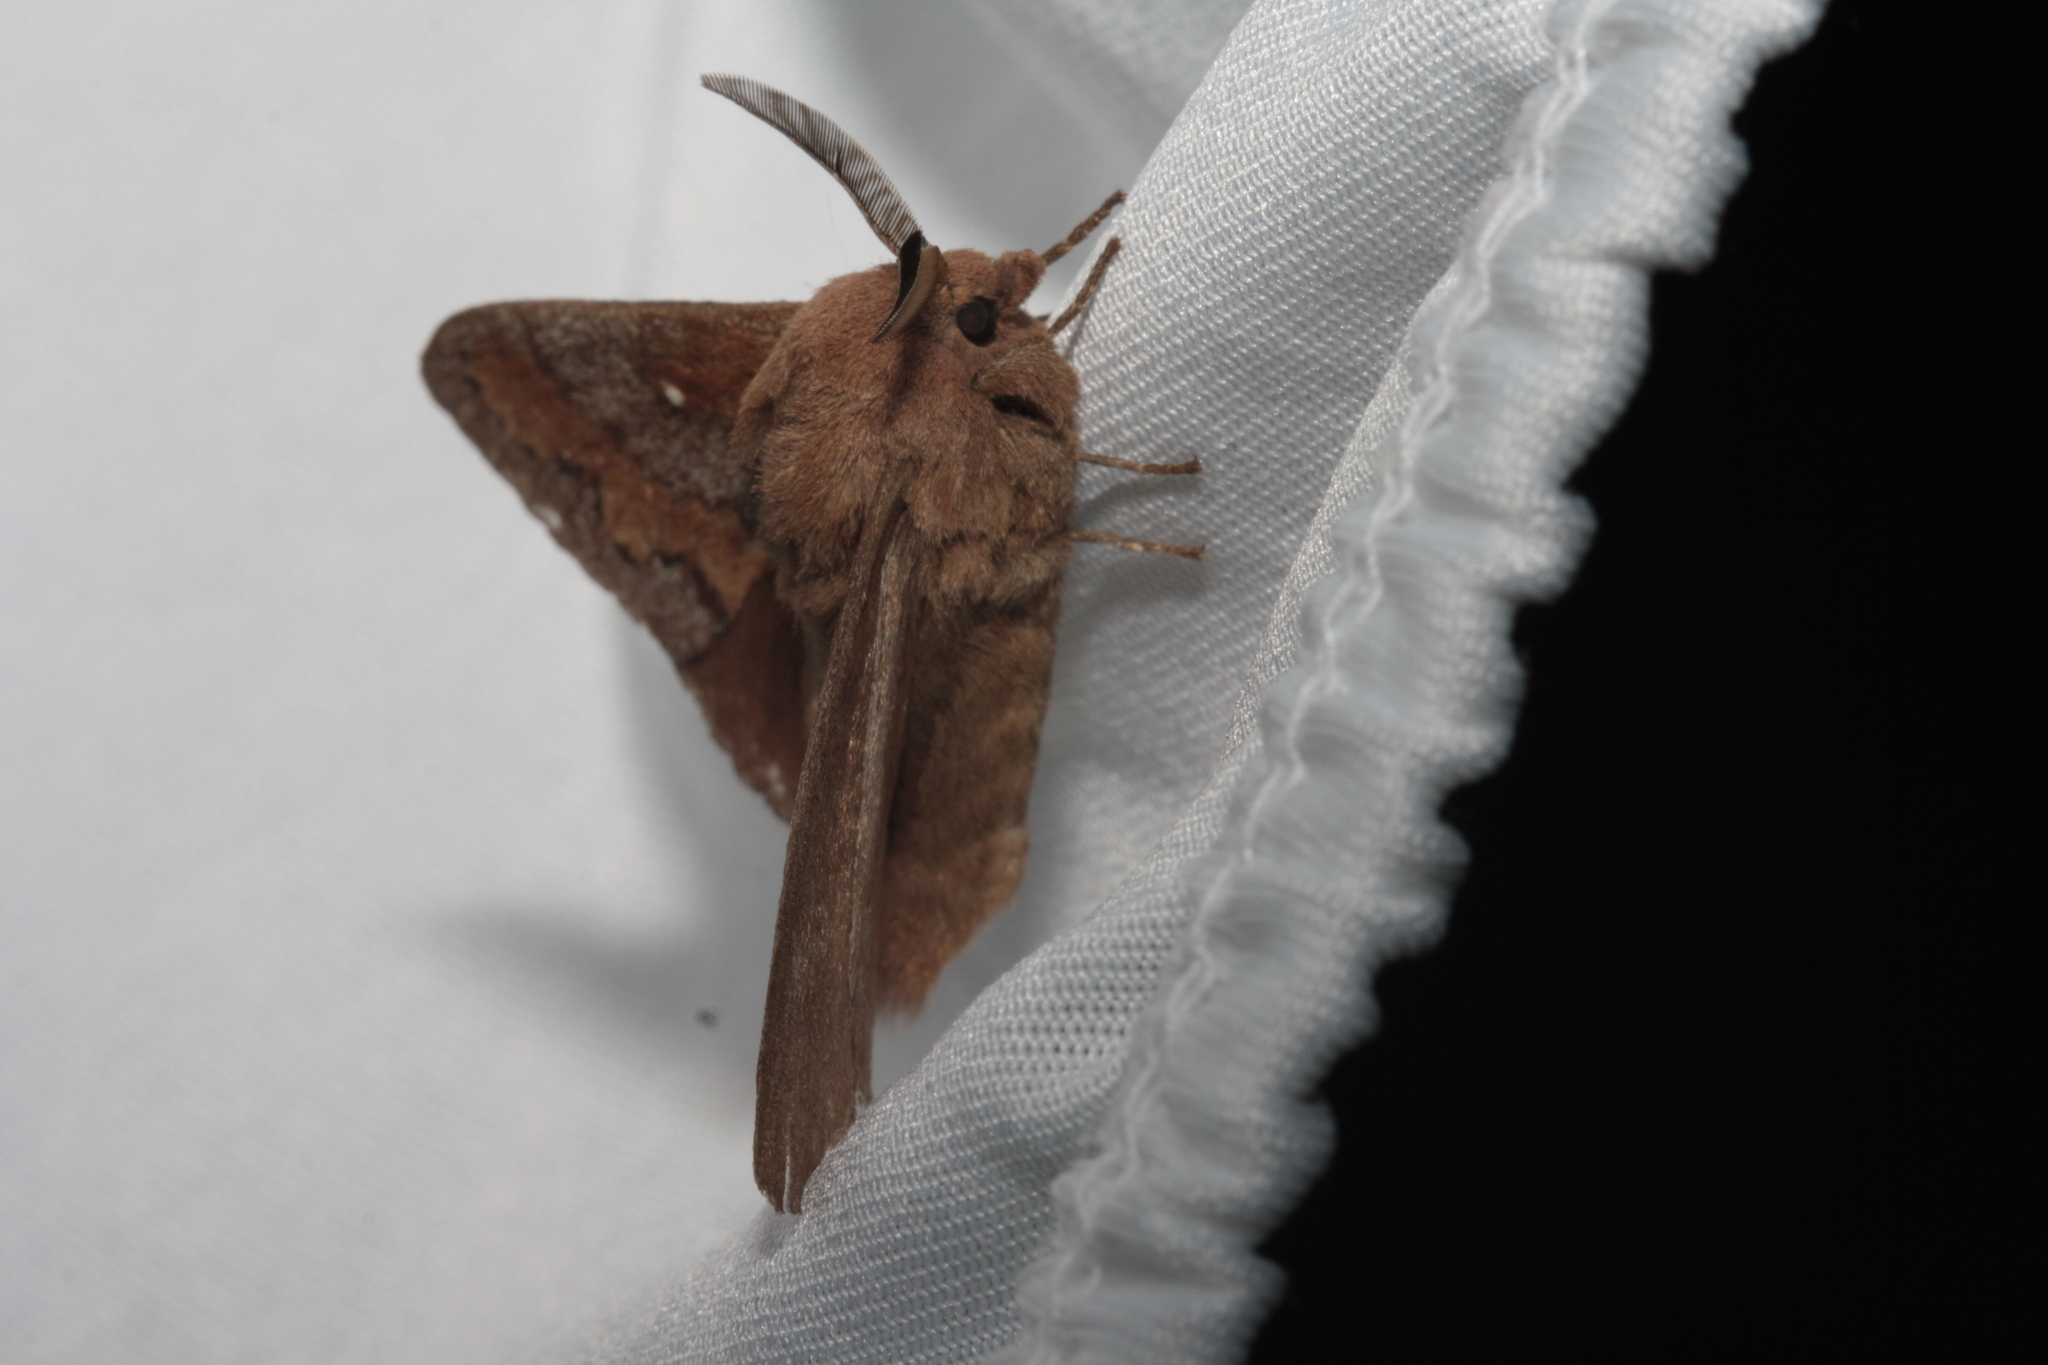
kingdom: Animalia
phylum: Arthropoda
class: Insecta
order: Lepidoptera
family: Lasiocampidae
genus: Dendrolimus
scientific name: Dendrolimus pini
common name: Pine-tree lappet
